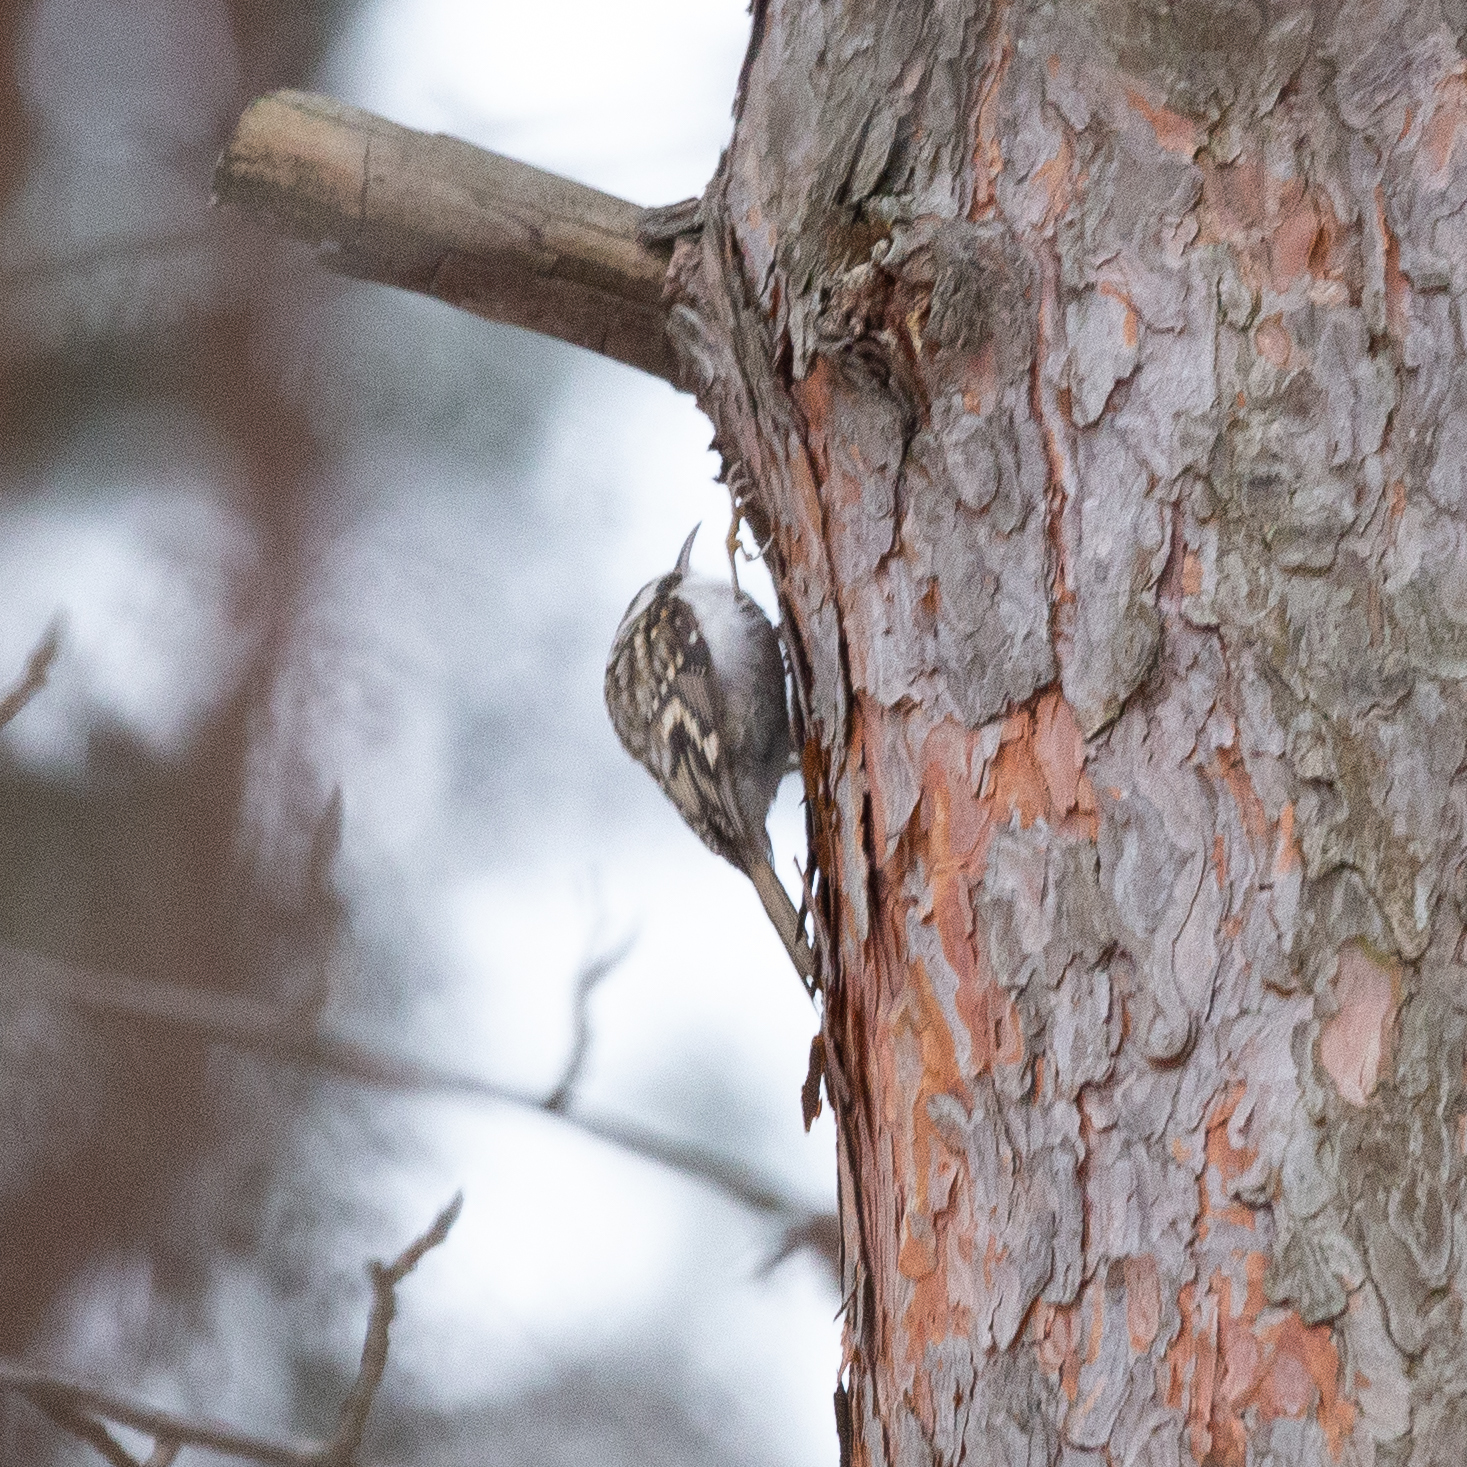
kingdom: Animalia
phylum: Chordata
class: Aves
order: Passeriformes
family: Certhiidae
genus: Certhia
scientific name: Certhia familiaris
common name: Eurasian treecreeper
